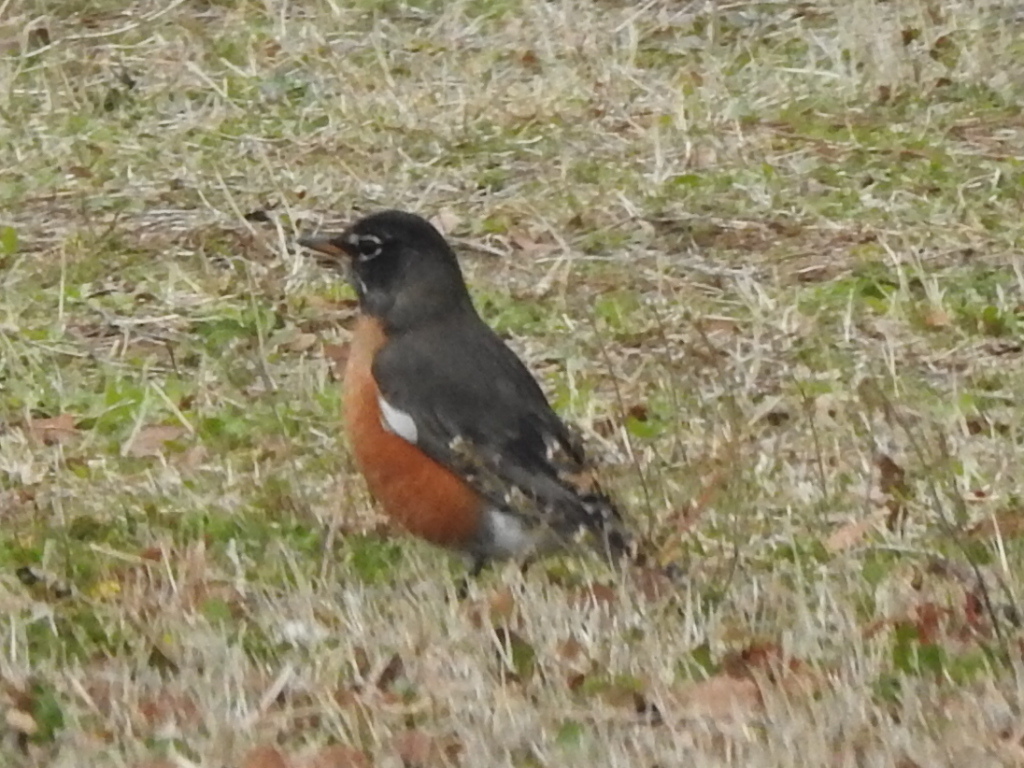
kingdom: Animalia
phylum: Chordata
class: Aves
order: Passeriformes
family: Turdidae
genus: Turdus
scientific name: Turdus migratorius
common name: American robin
